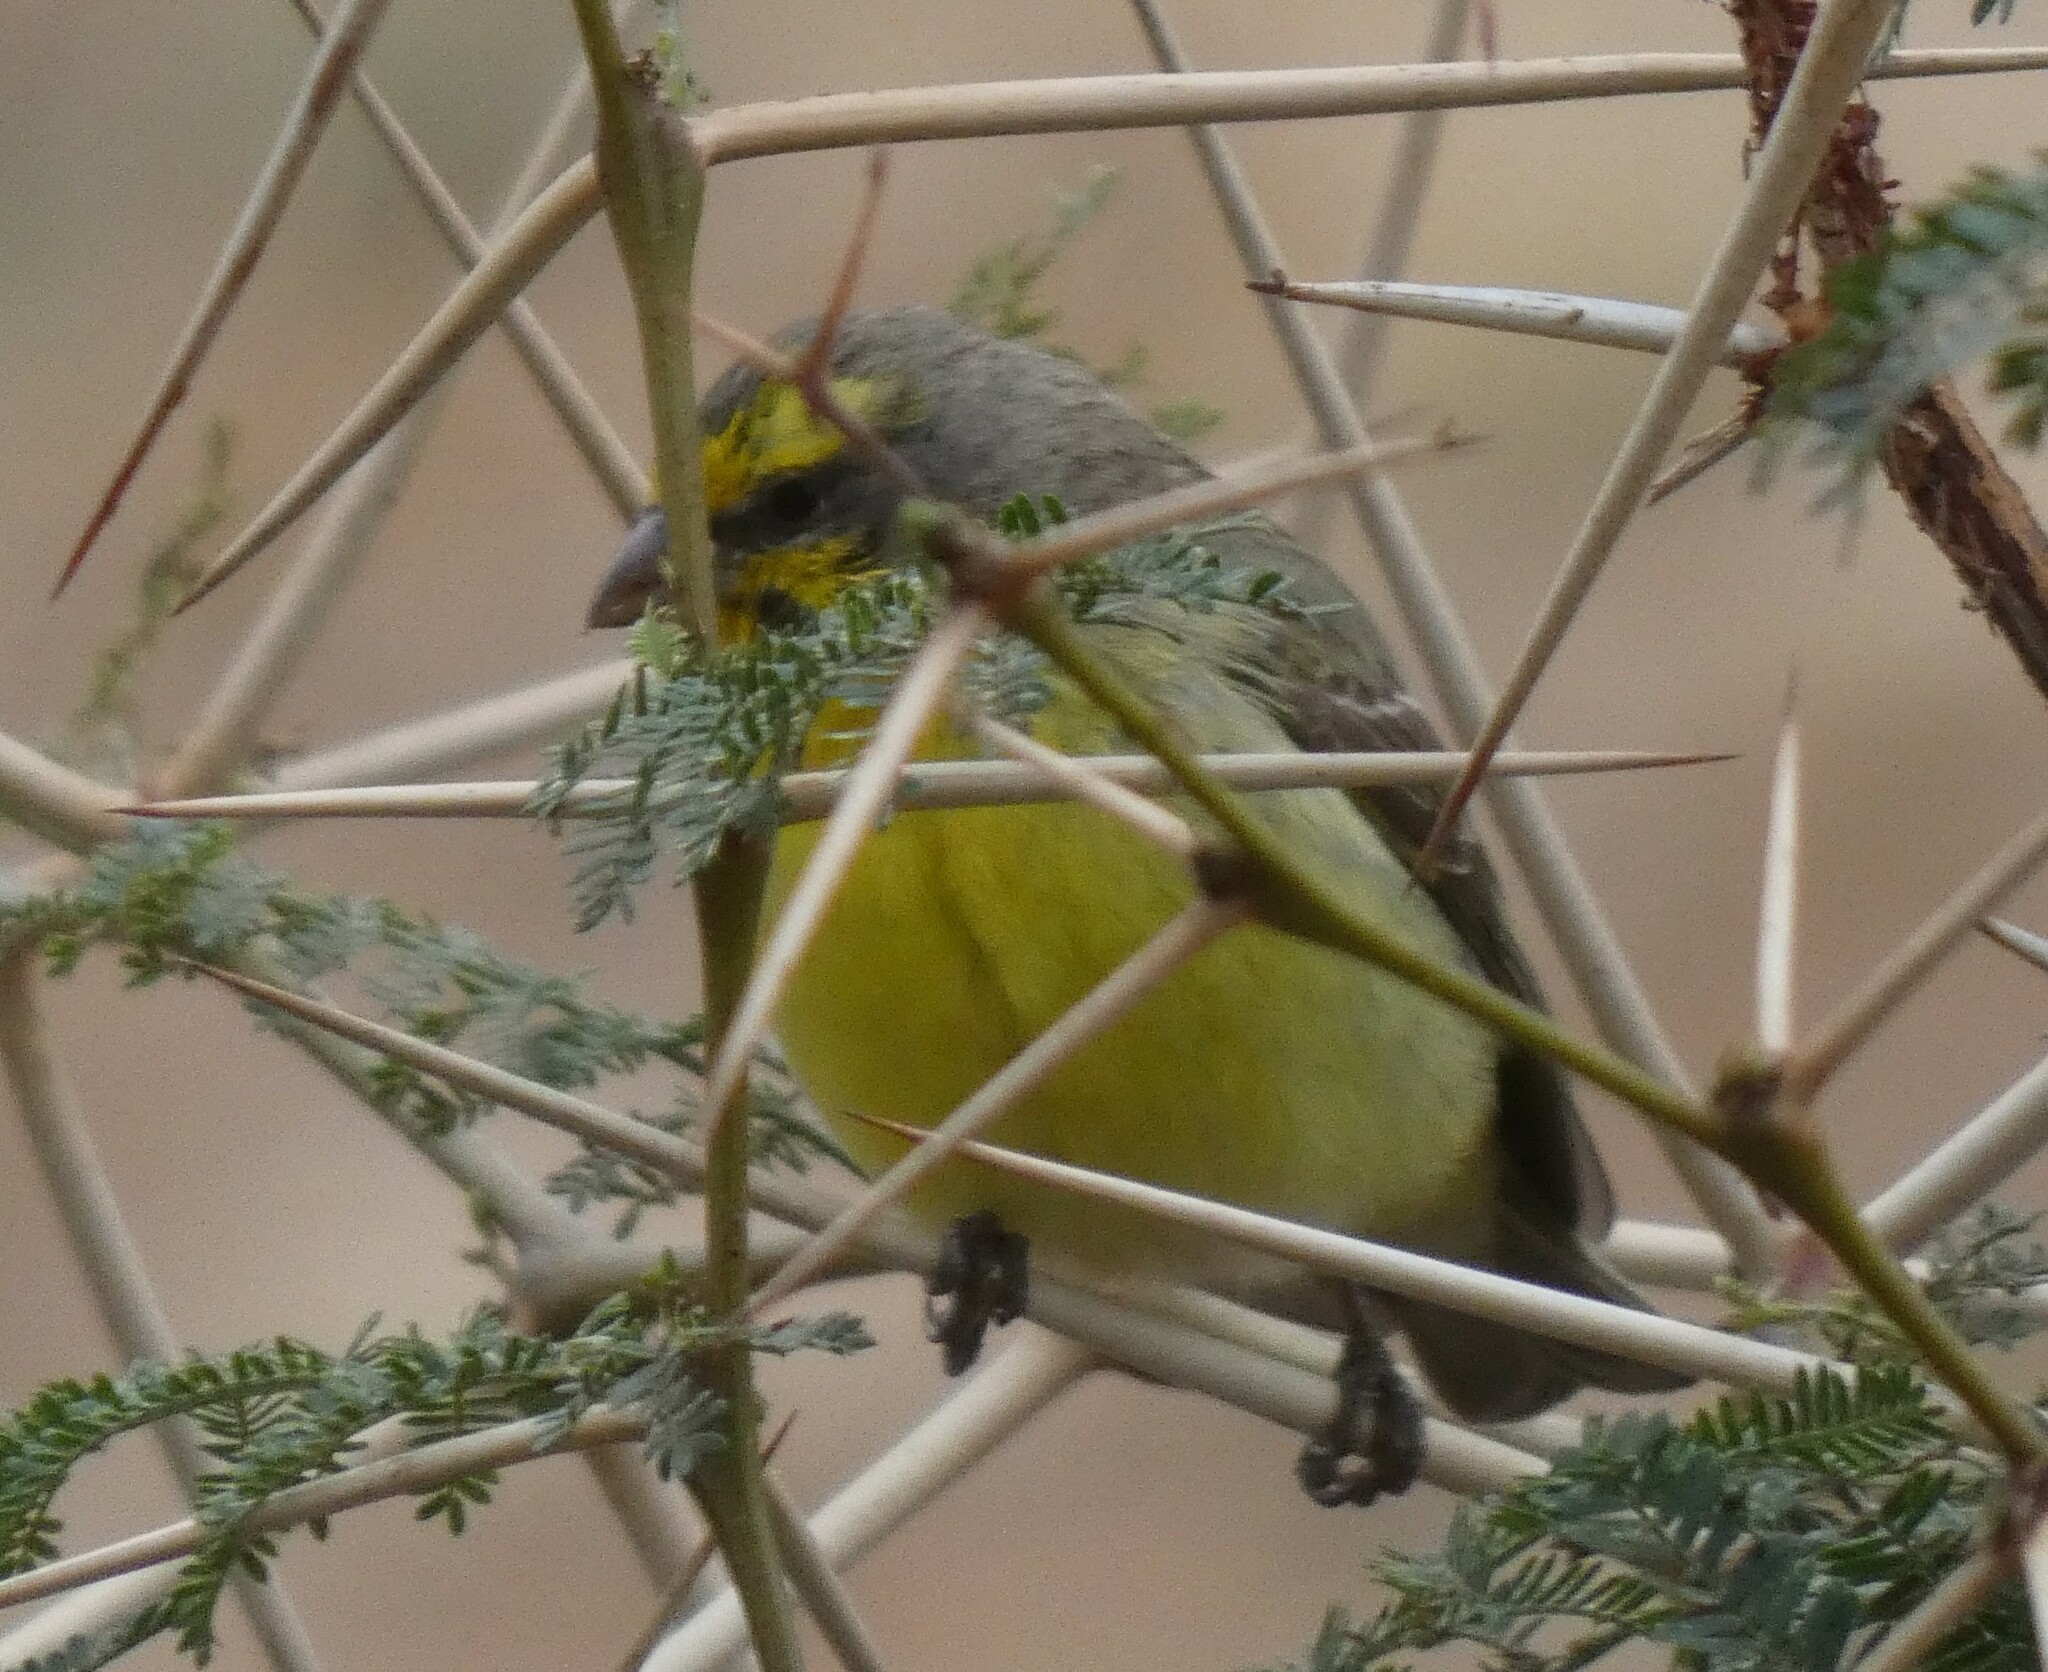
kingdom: Animalia
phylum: Chordata
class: Aves
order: Passeriformes
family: Fringillidae
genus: Crithagra
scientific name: Crithagra mozambica
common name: Yellow-fronted canary
